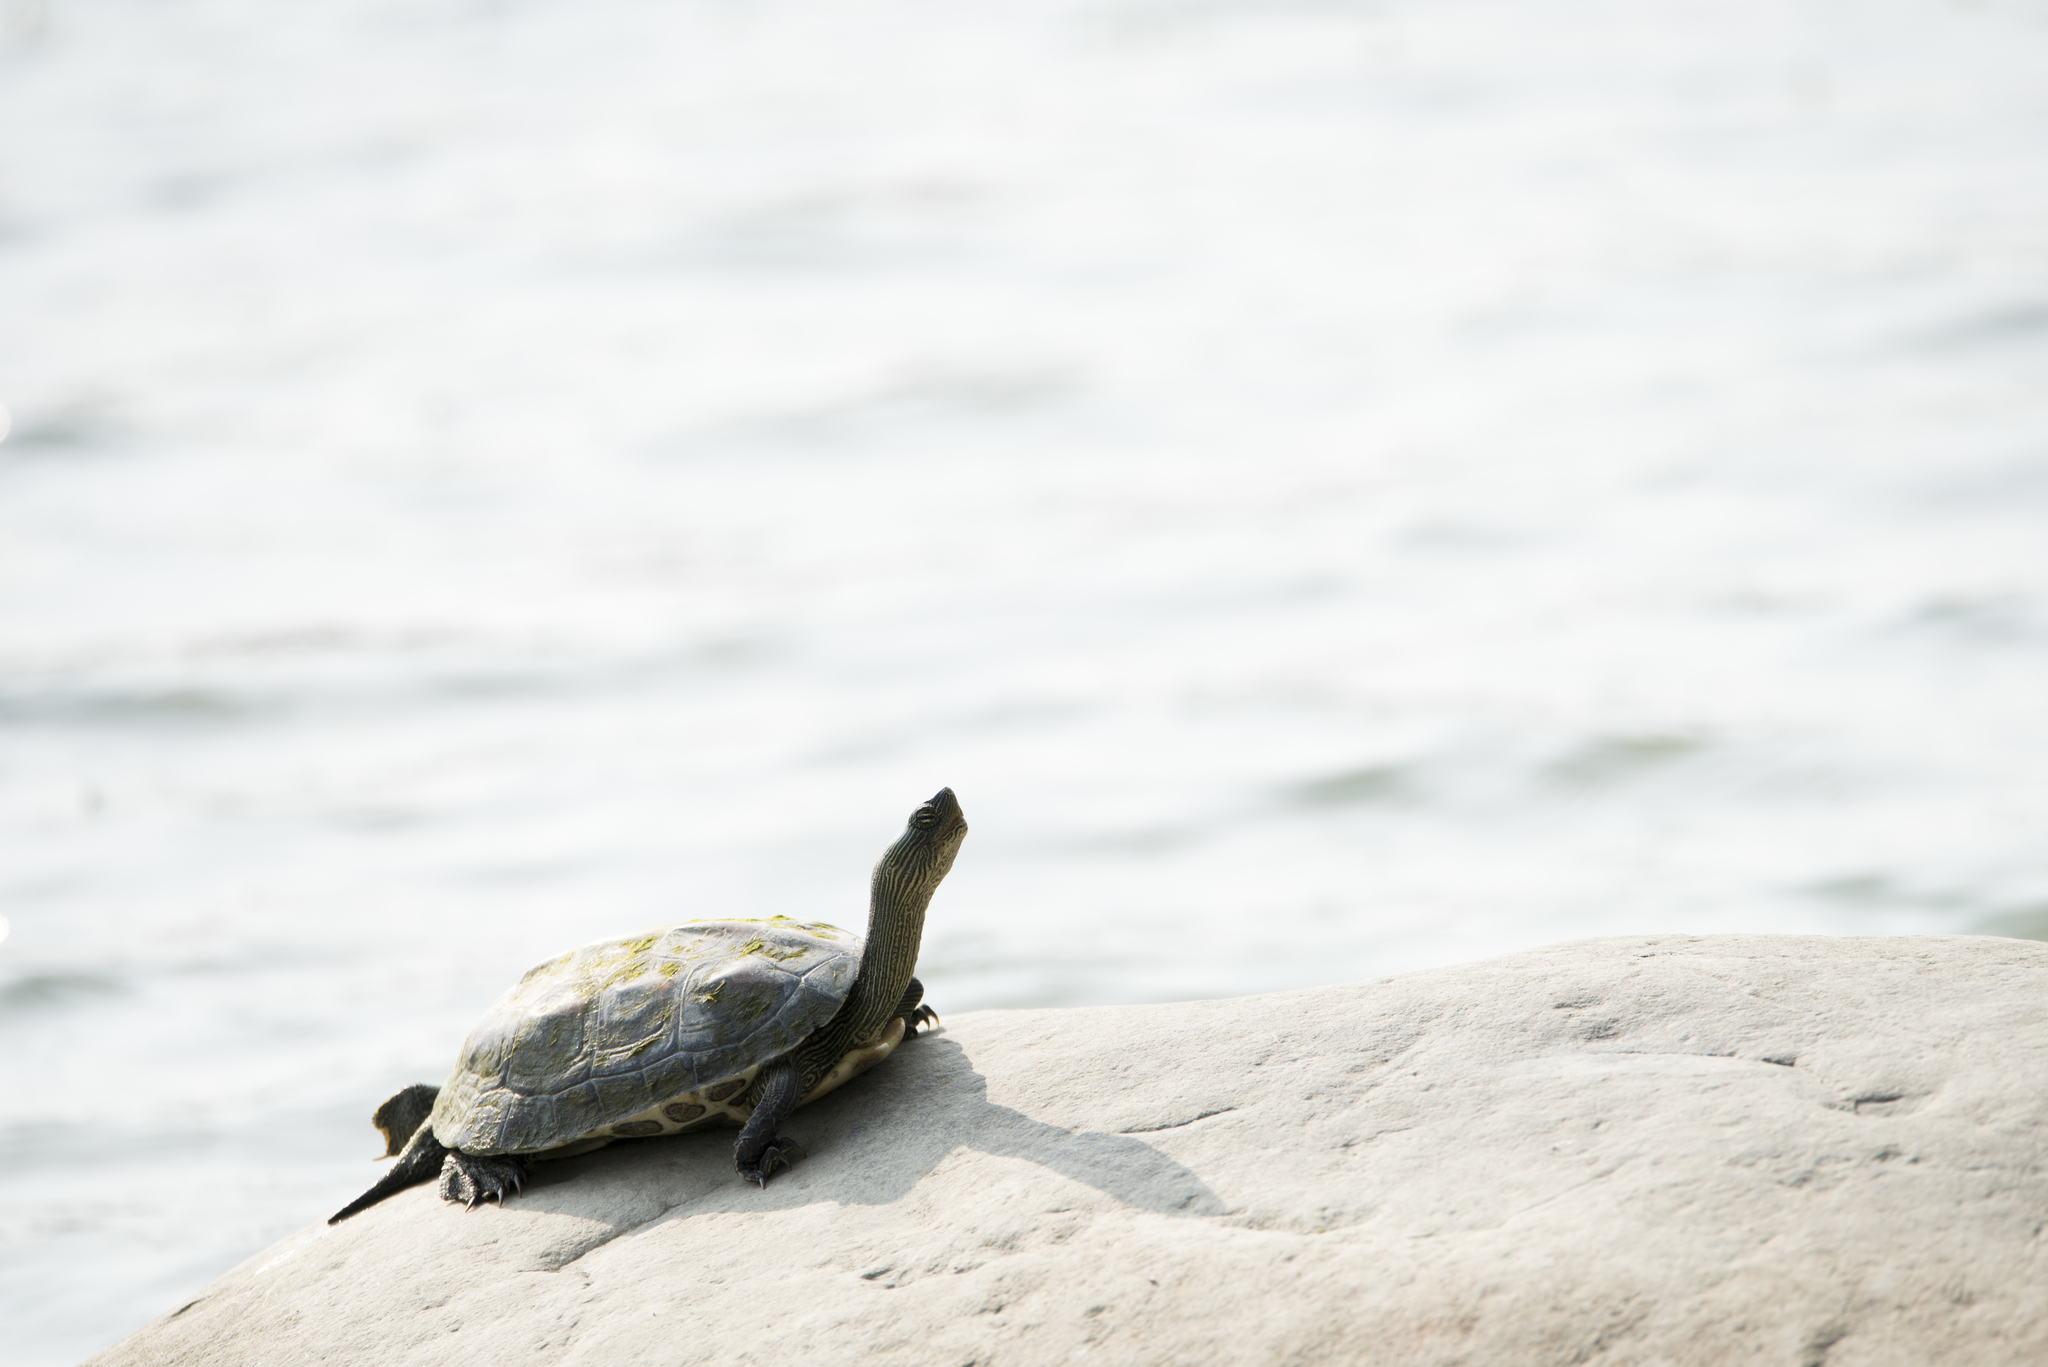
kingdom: Animalia
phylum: Chordata
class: Testudines
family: Geoemydidae
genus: Mauremys
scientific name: Mauremys sinensis
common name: Chinese stripe-necked turtle
